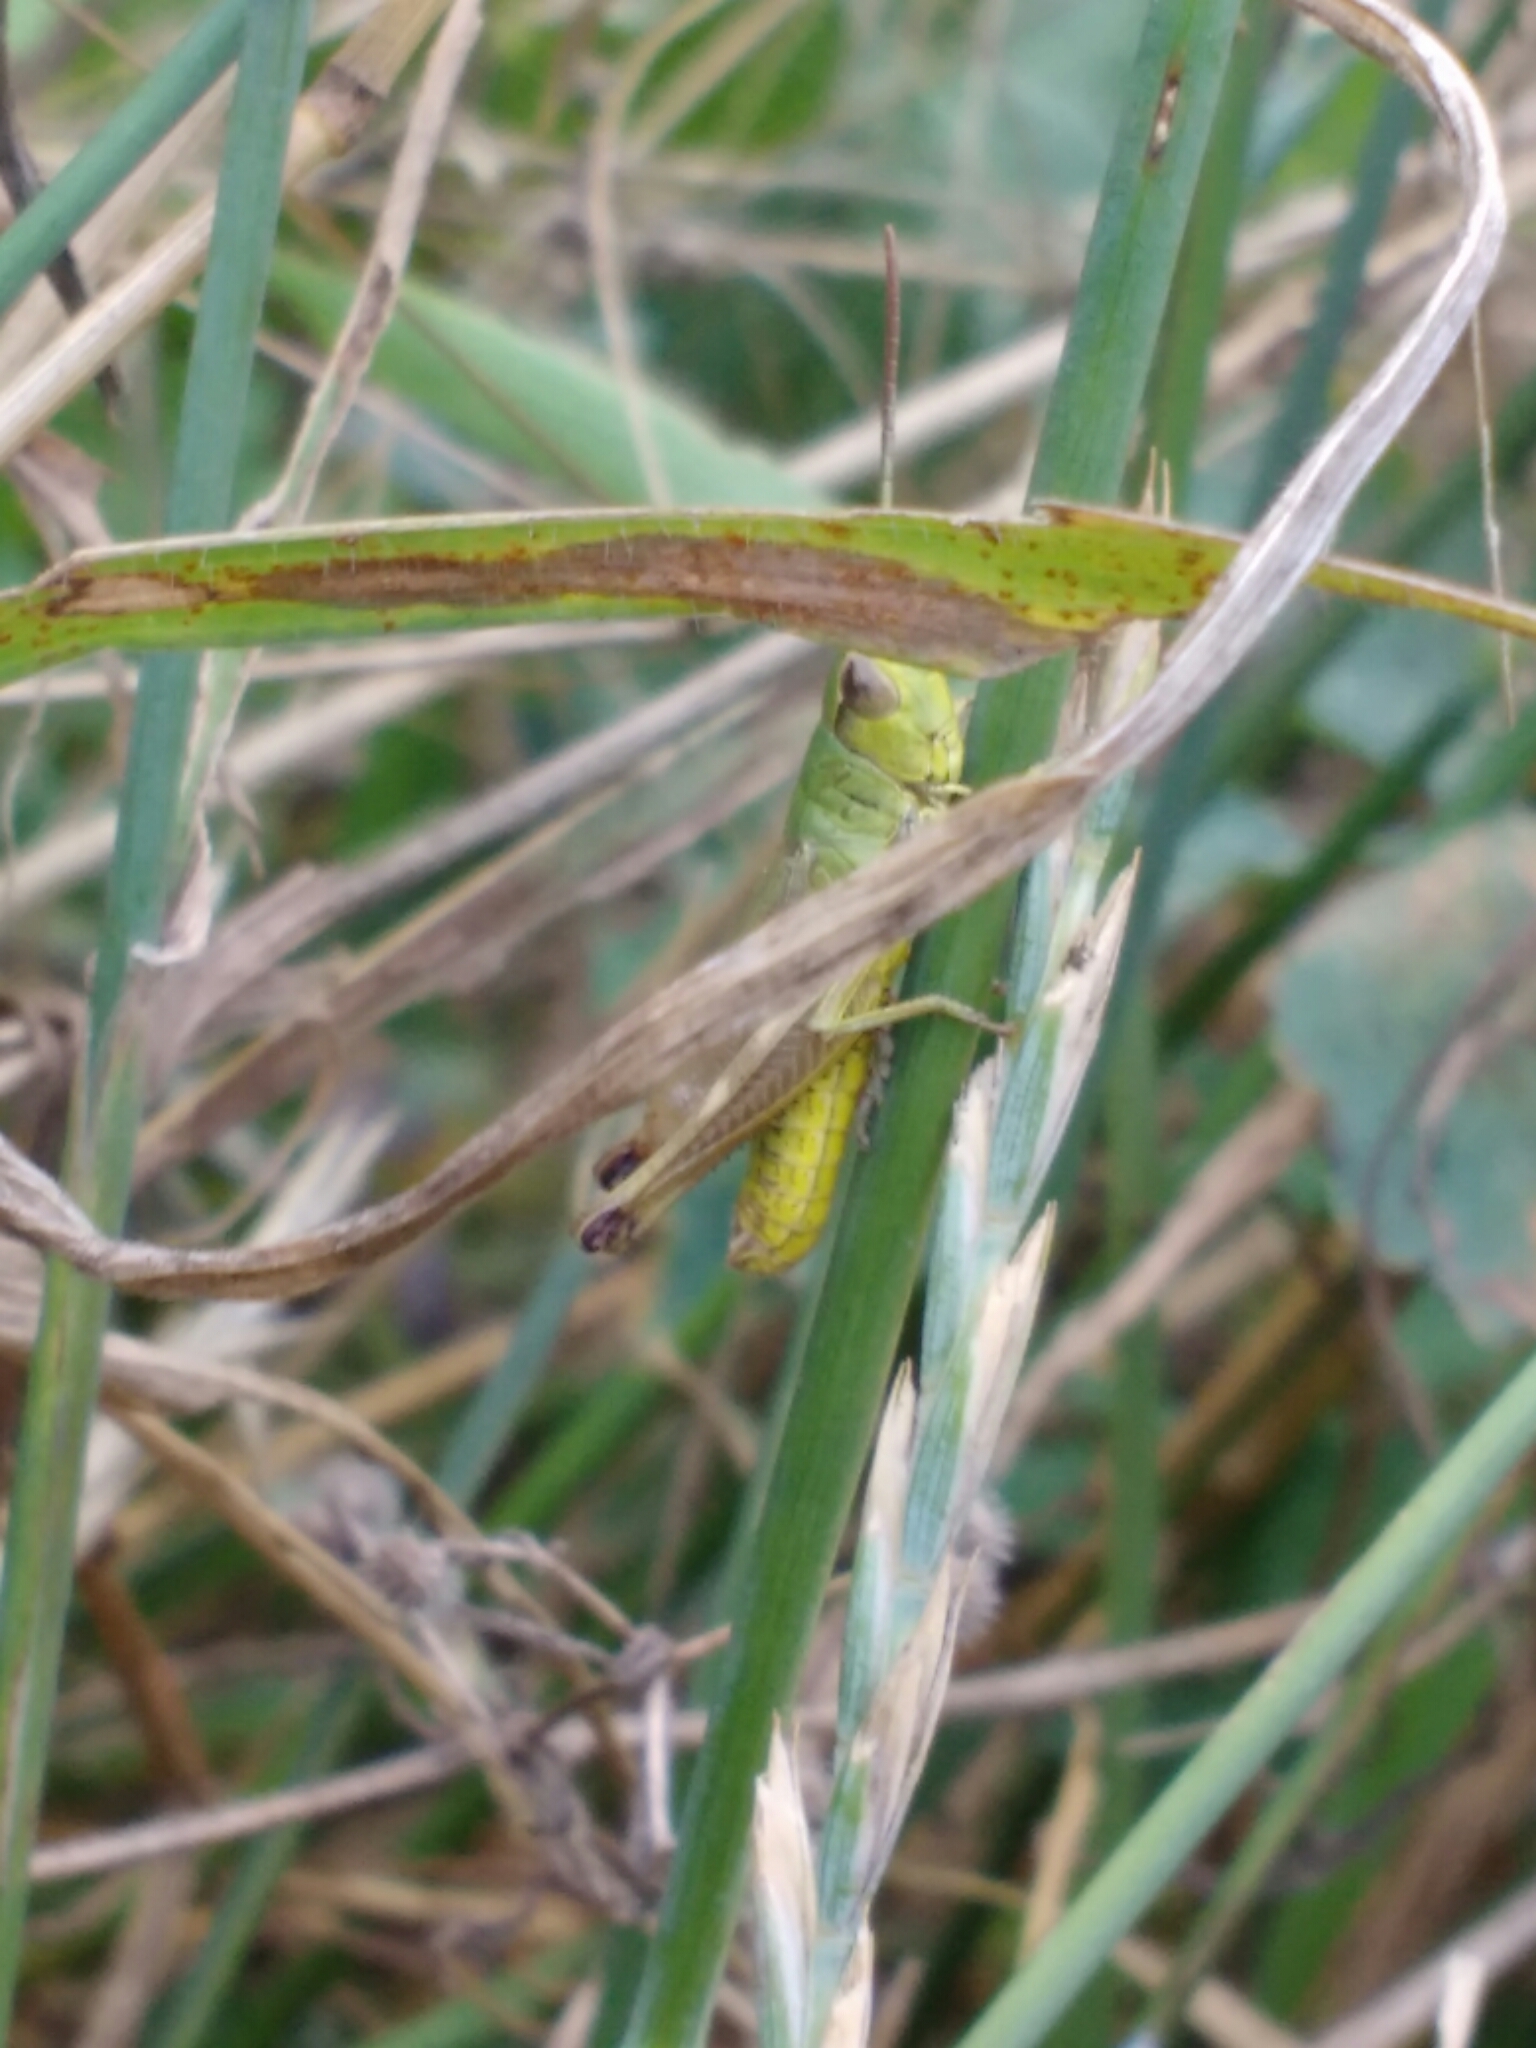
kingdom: Animalia
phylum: Arthropoda
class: Insecta
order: Orthoptera
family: Acrididae
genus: Pseudochorthippus
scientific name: Pseudochorthippus parallelus
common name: Meadow grasshopper
